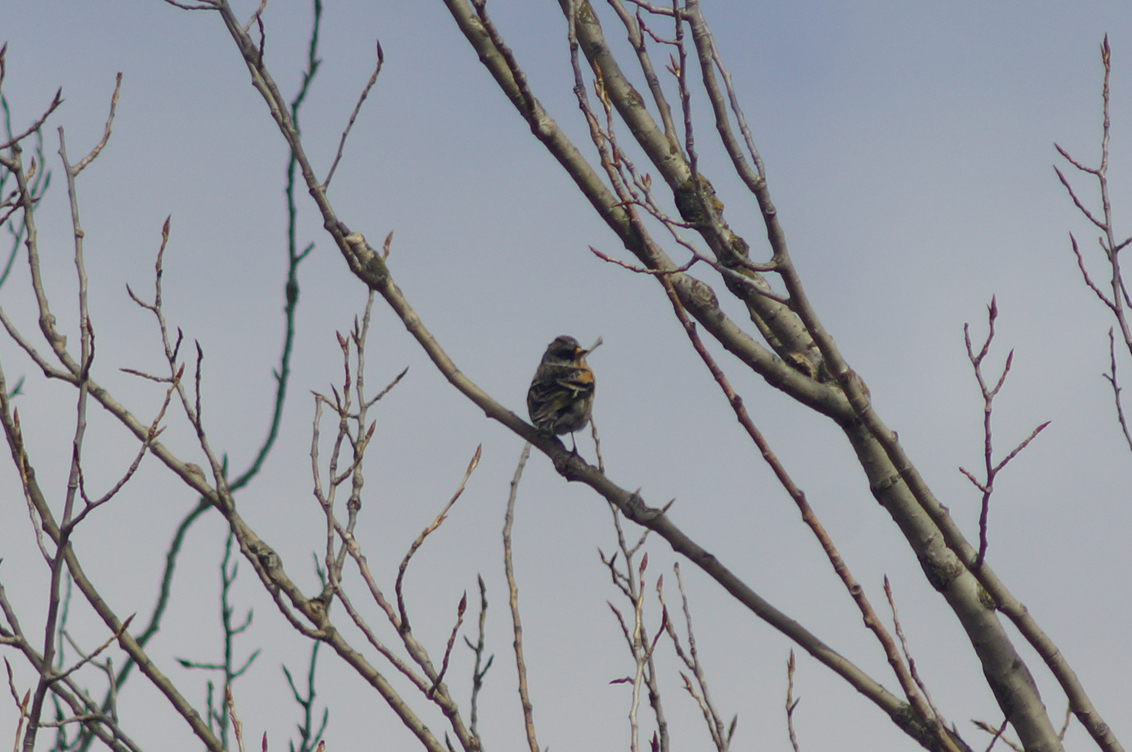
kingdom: Animalia
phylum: Chordata
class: Aves
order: Passeriformes
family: Fringillidae
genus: Fringilla
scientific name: Fringilla montifringilla
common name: Brambling
